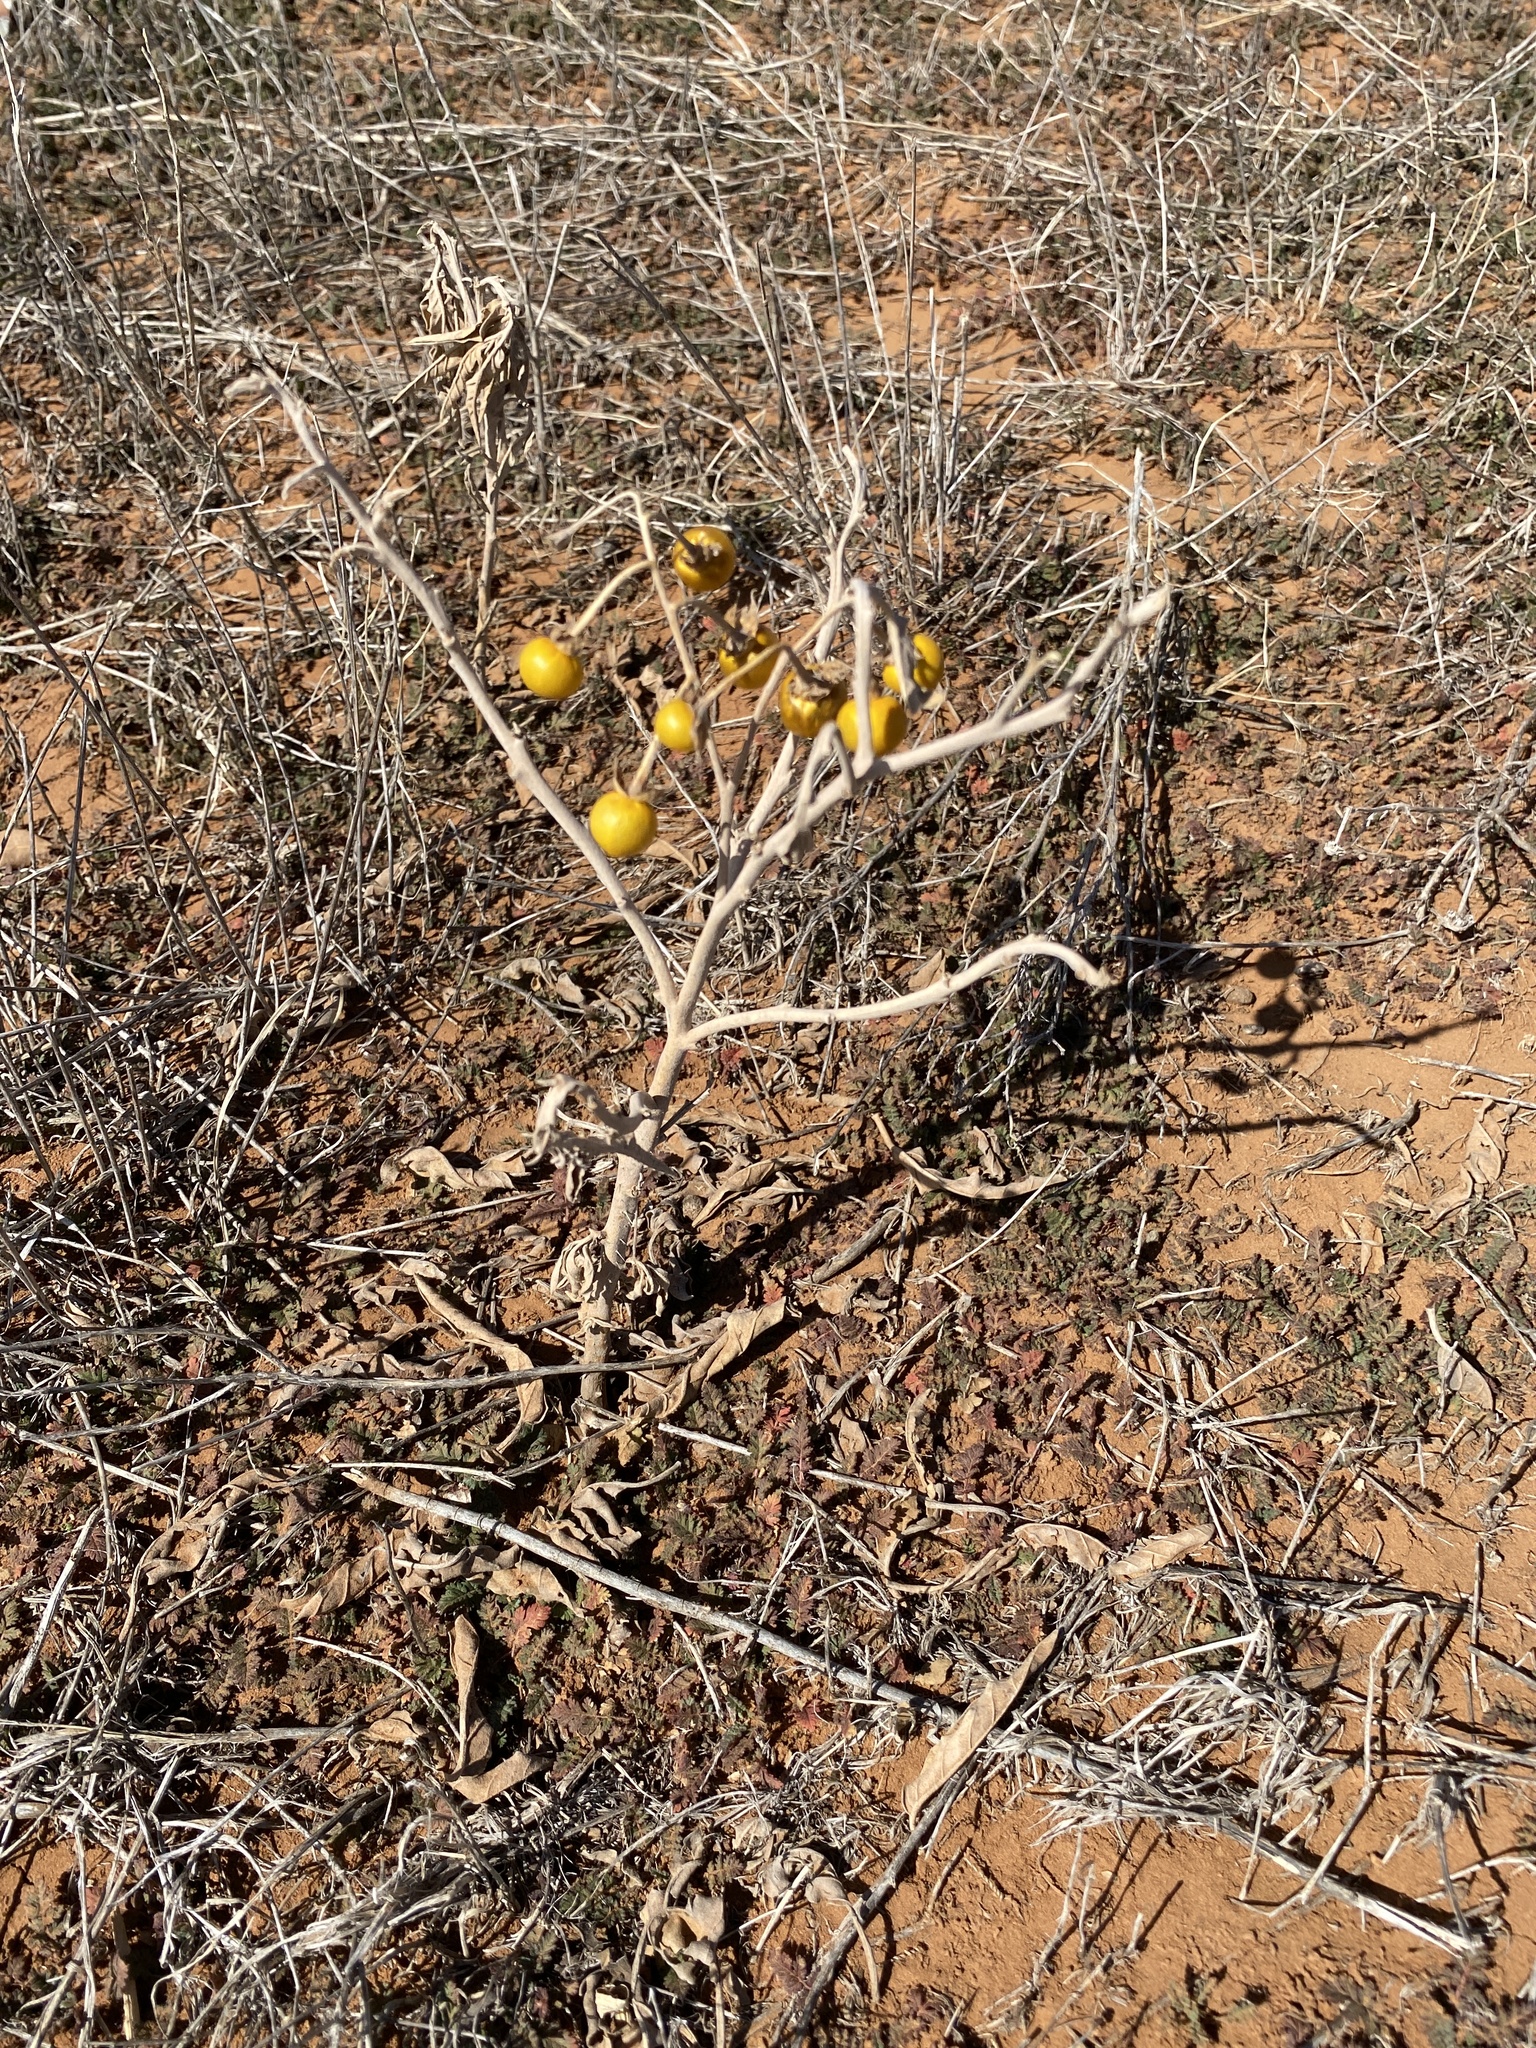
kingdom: Plantae
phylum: Tracheophyta
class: Magnoliopsida
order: Solanales
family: Solanaceae
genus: Solanum
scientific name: Solanum elaeagnifolium
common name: Silverleaf nightshade
